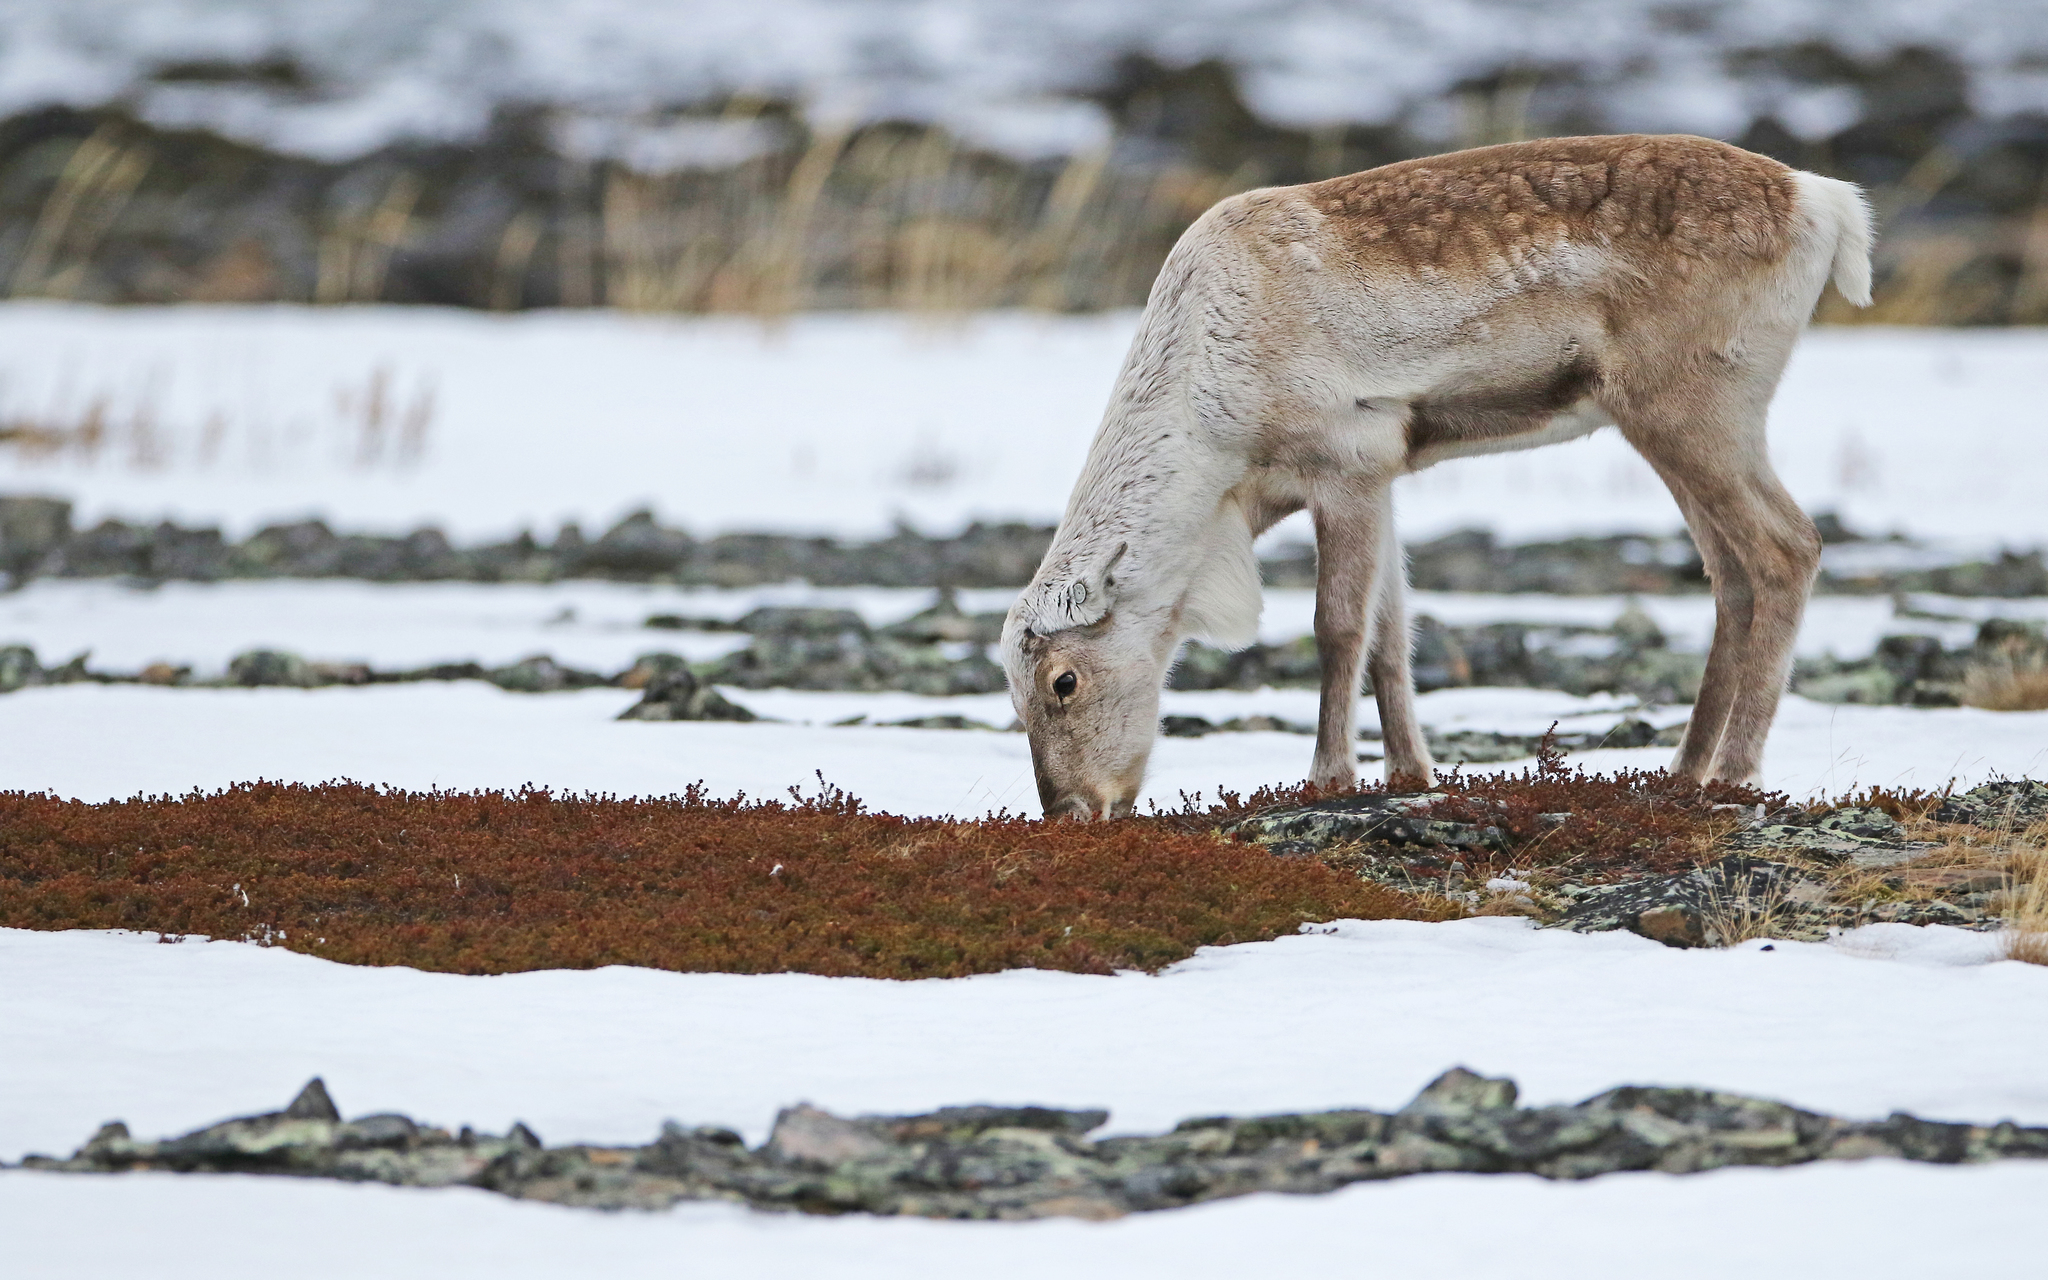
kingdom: Animalia
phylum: Chordata
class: Mammalia
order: Artiodactyla
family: Cervidae
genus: Rangifer
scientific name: Rangifer tarandus
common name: Reindeer
